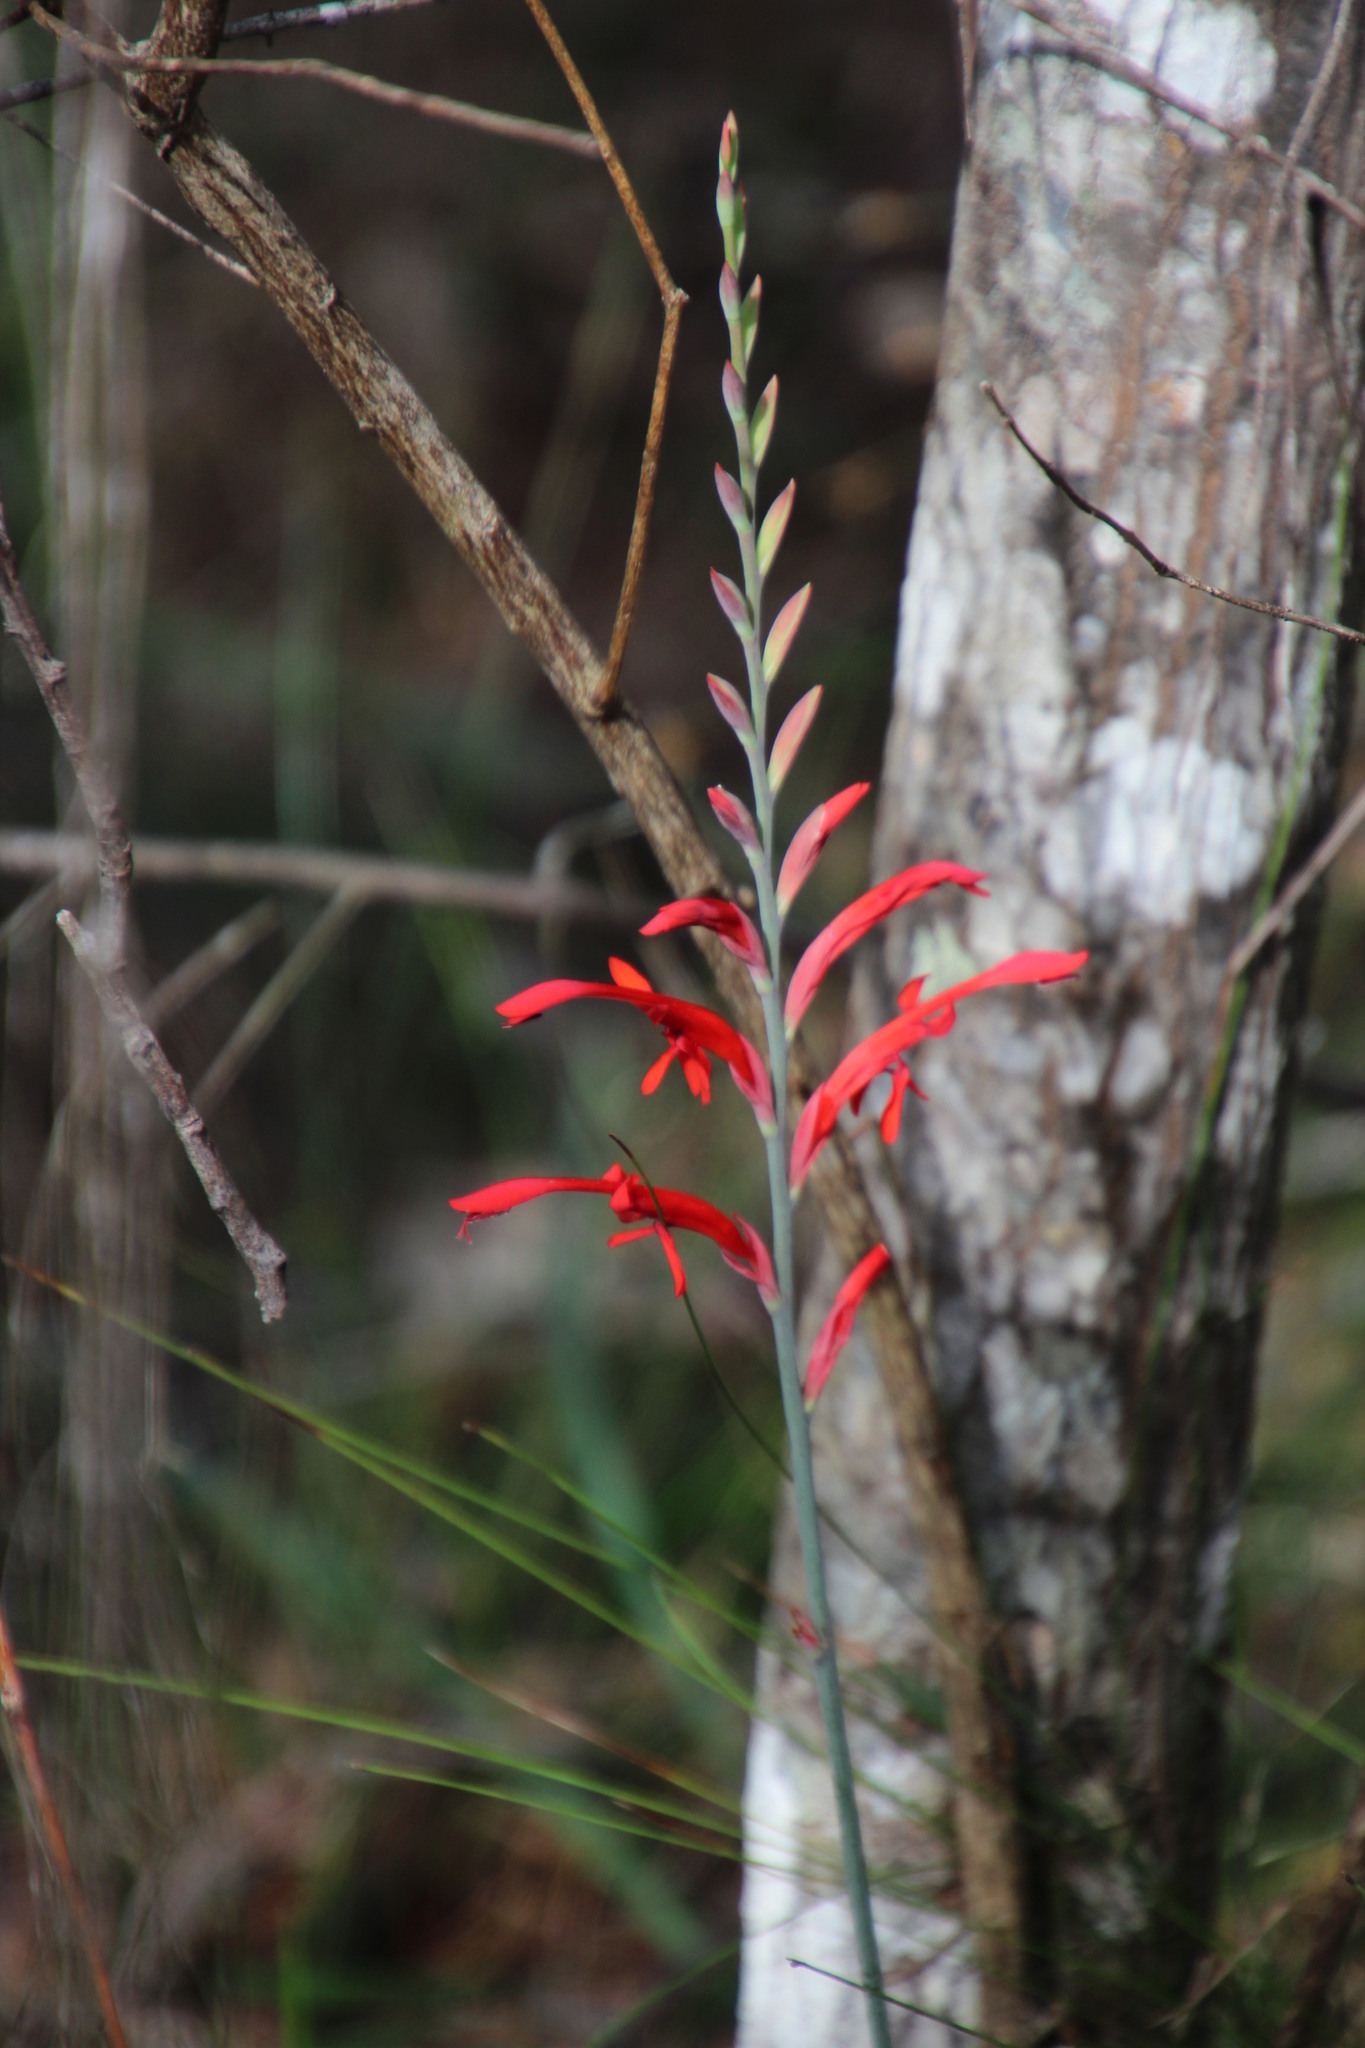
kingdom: Plantae
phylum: Tracheophyta
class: Liliopsida
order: Asparagales
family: Iridaceae
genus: Tritoniopsis
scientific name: Tritoniopsis caffra
